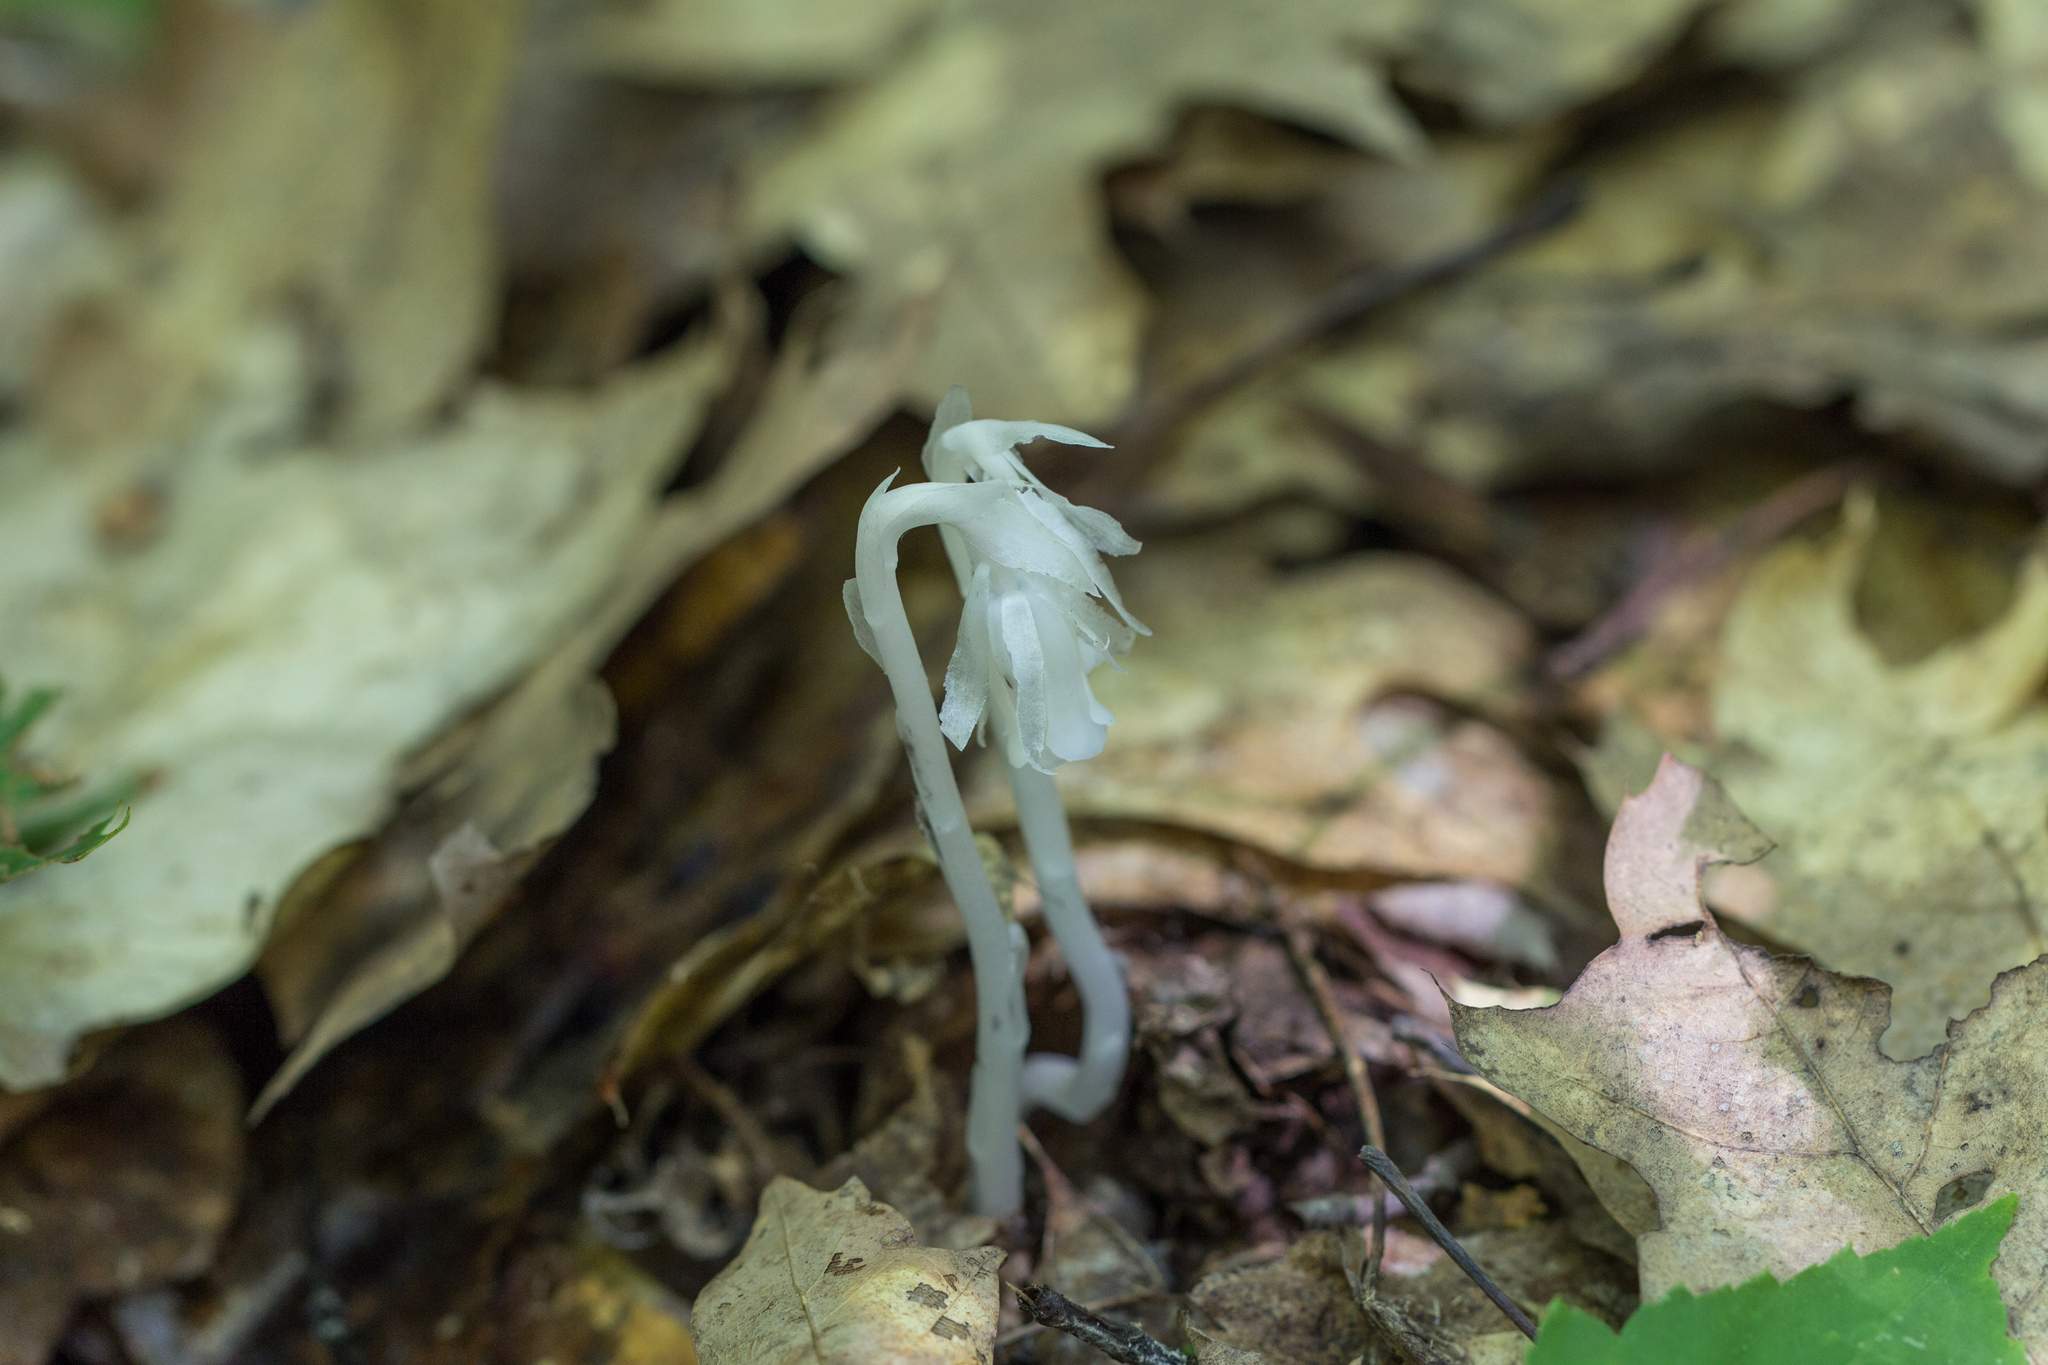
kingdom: Plantae
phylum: Tracheophyta
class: Magnoliopsida
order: Ericales
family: Ericaceae
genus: Monotropa
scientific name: Monotropa uniflora
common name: Convulsion root
